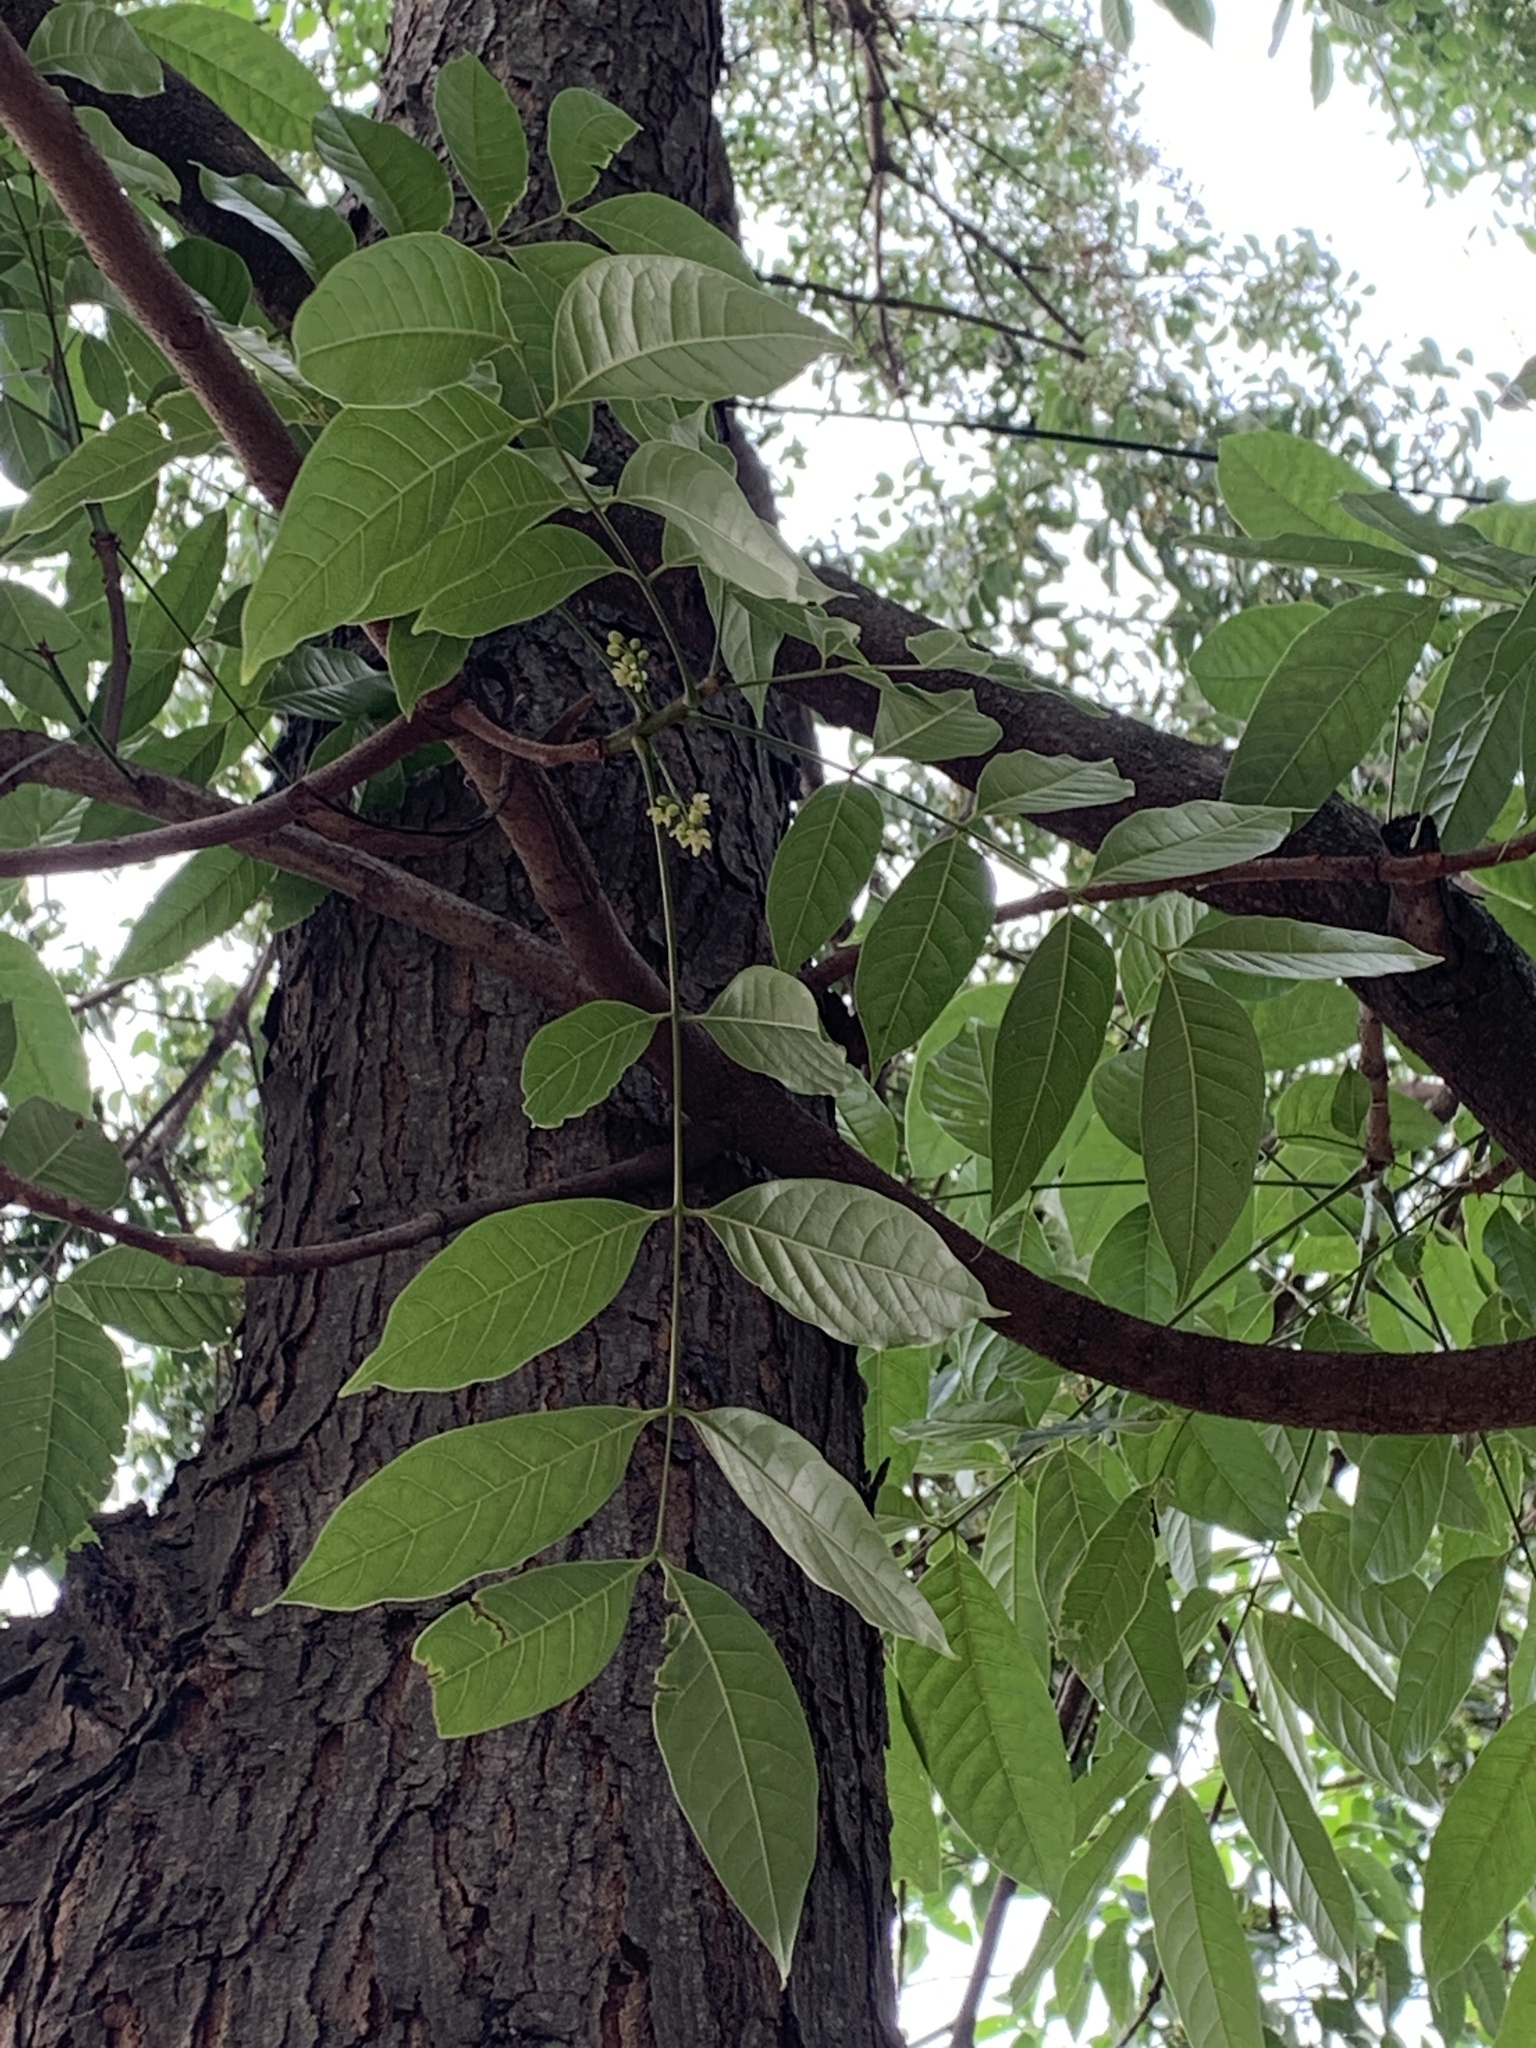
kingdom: Plantae
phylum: Tracheophyta
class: Magnoliopsida
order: Sapindales
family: Meliaceae
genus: Swietenia
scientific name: Swietenia macrophylla
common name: Honduras mahogany
